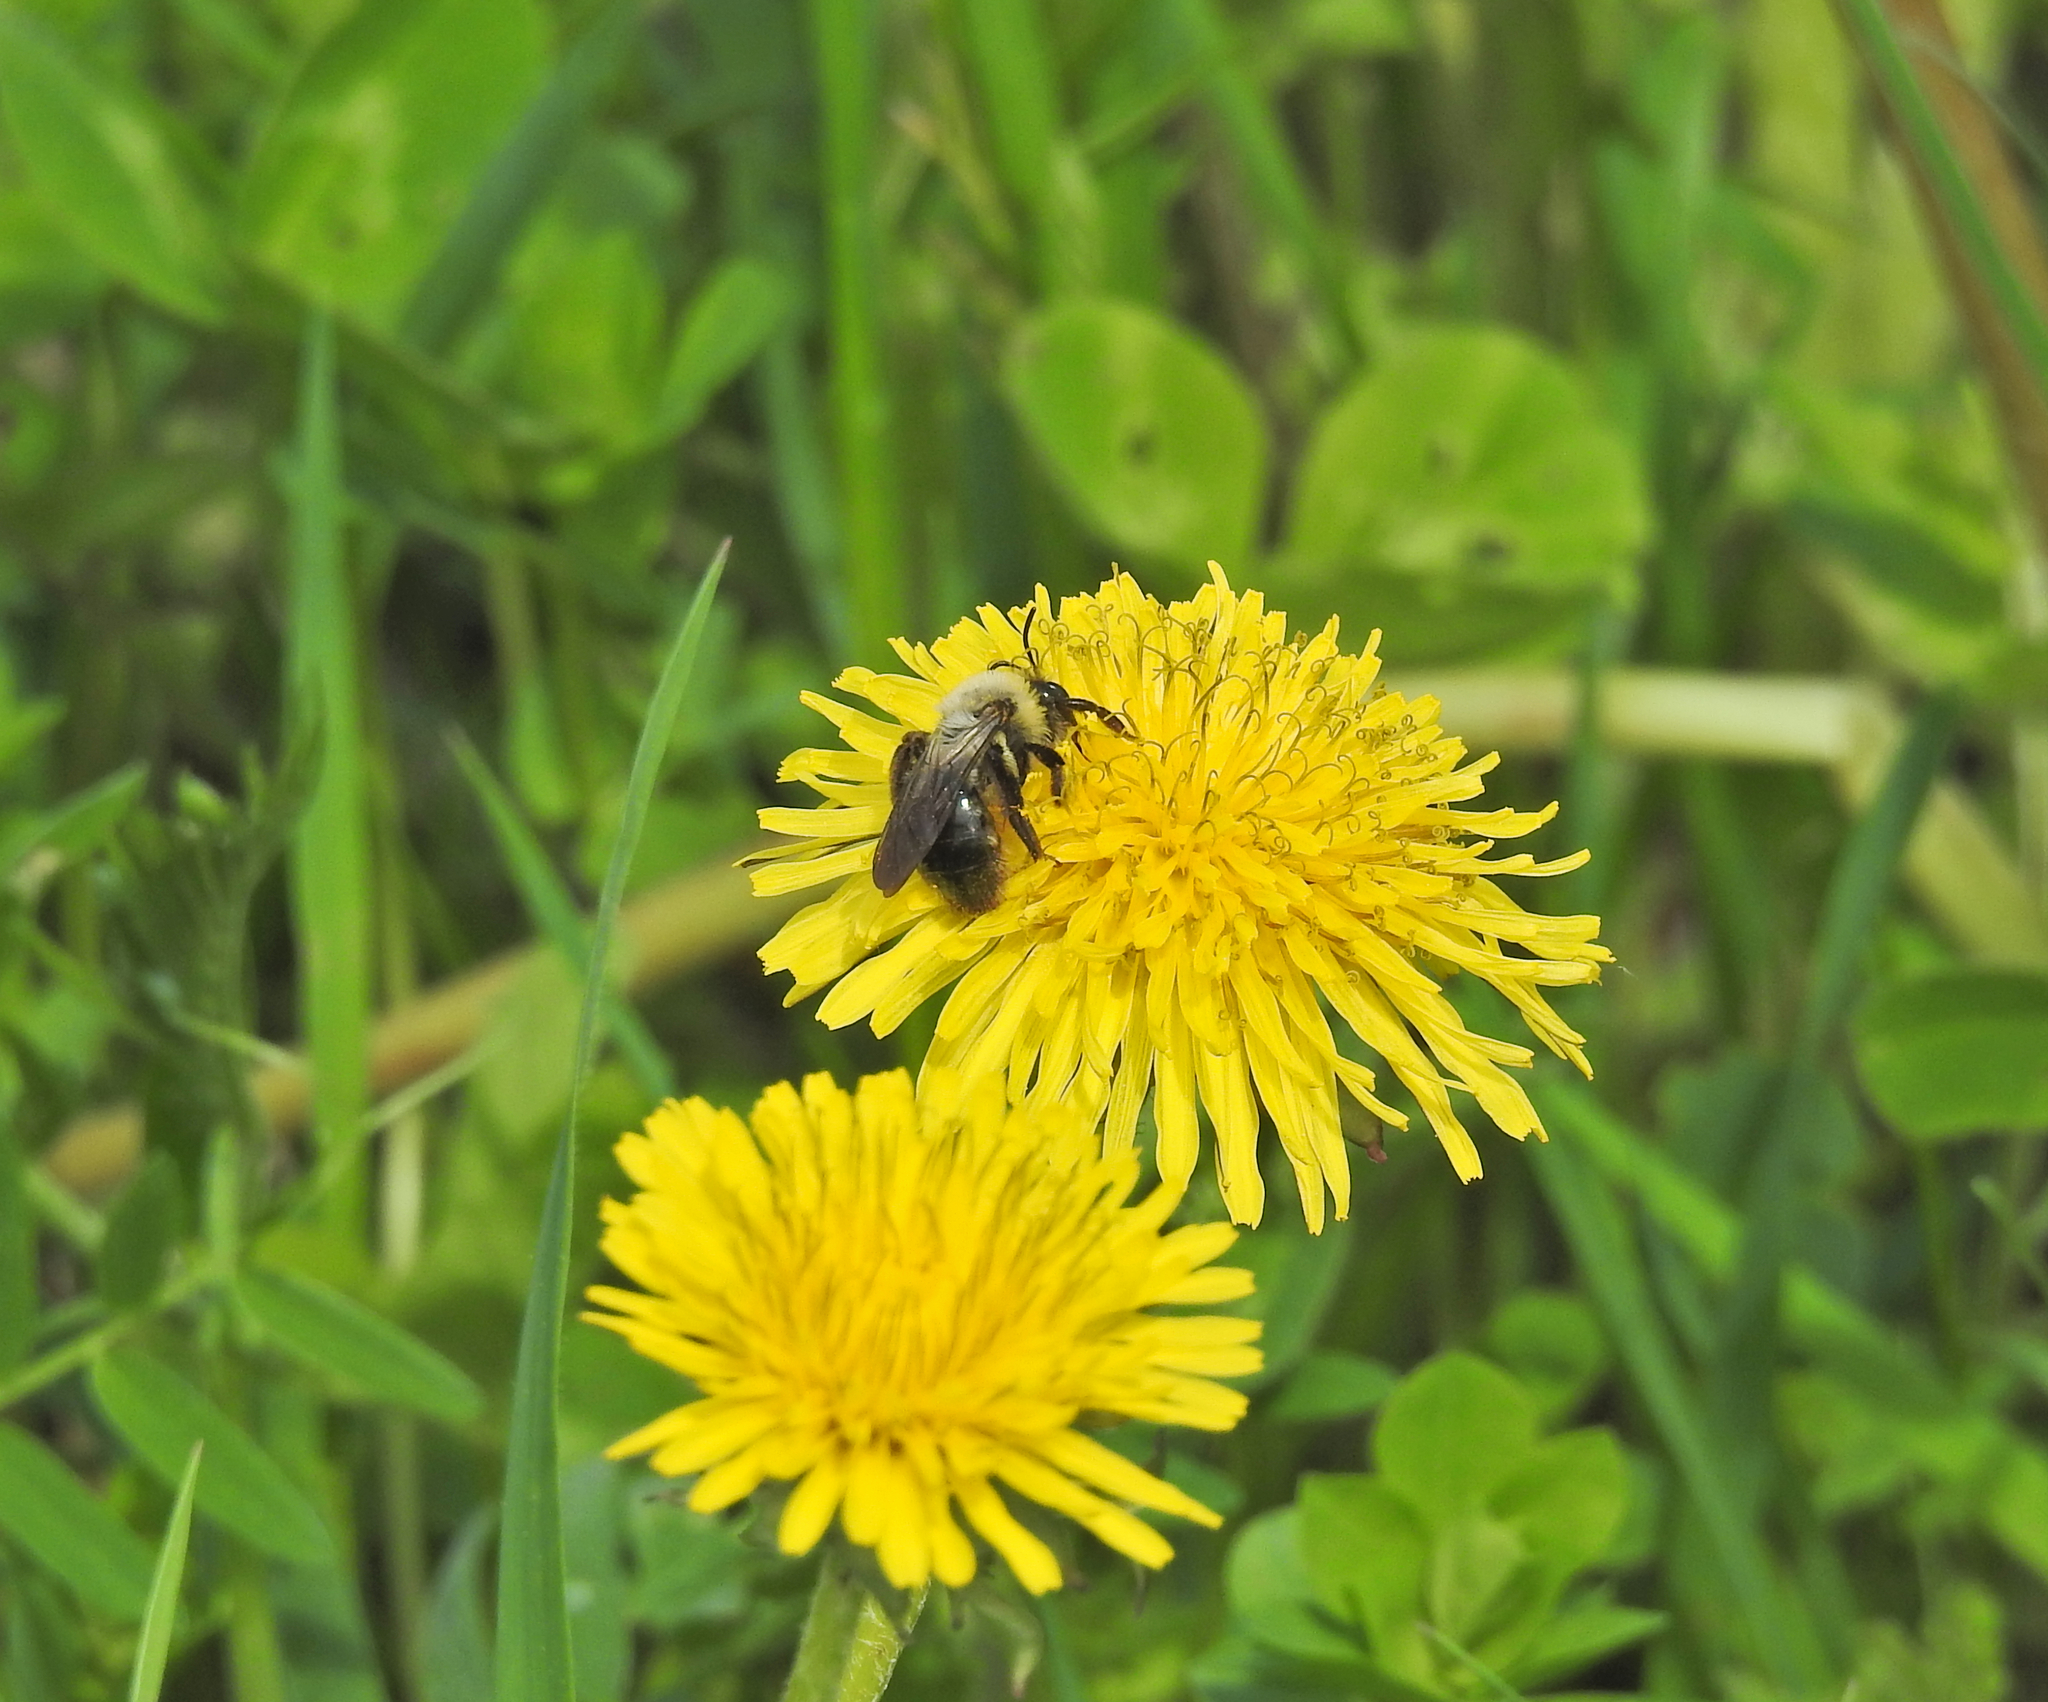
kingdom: Animalia
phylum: Arthropoda
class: Insecta
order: Hymenoptera
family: Andrenidae
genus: Andrena
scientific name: Andrena vaga
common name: Grey-backed mining bee
